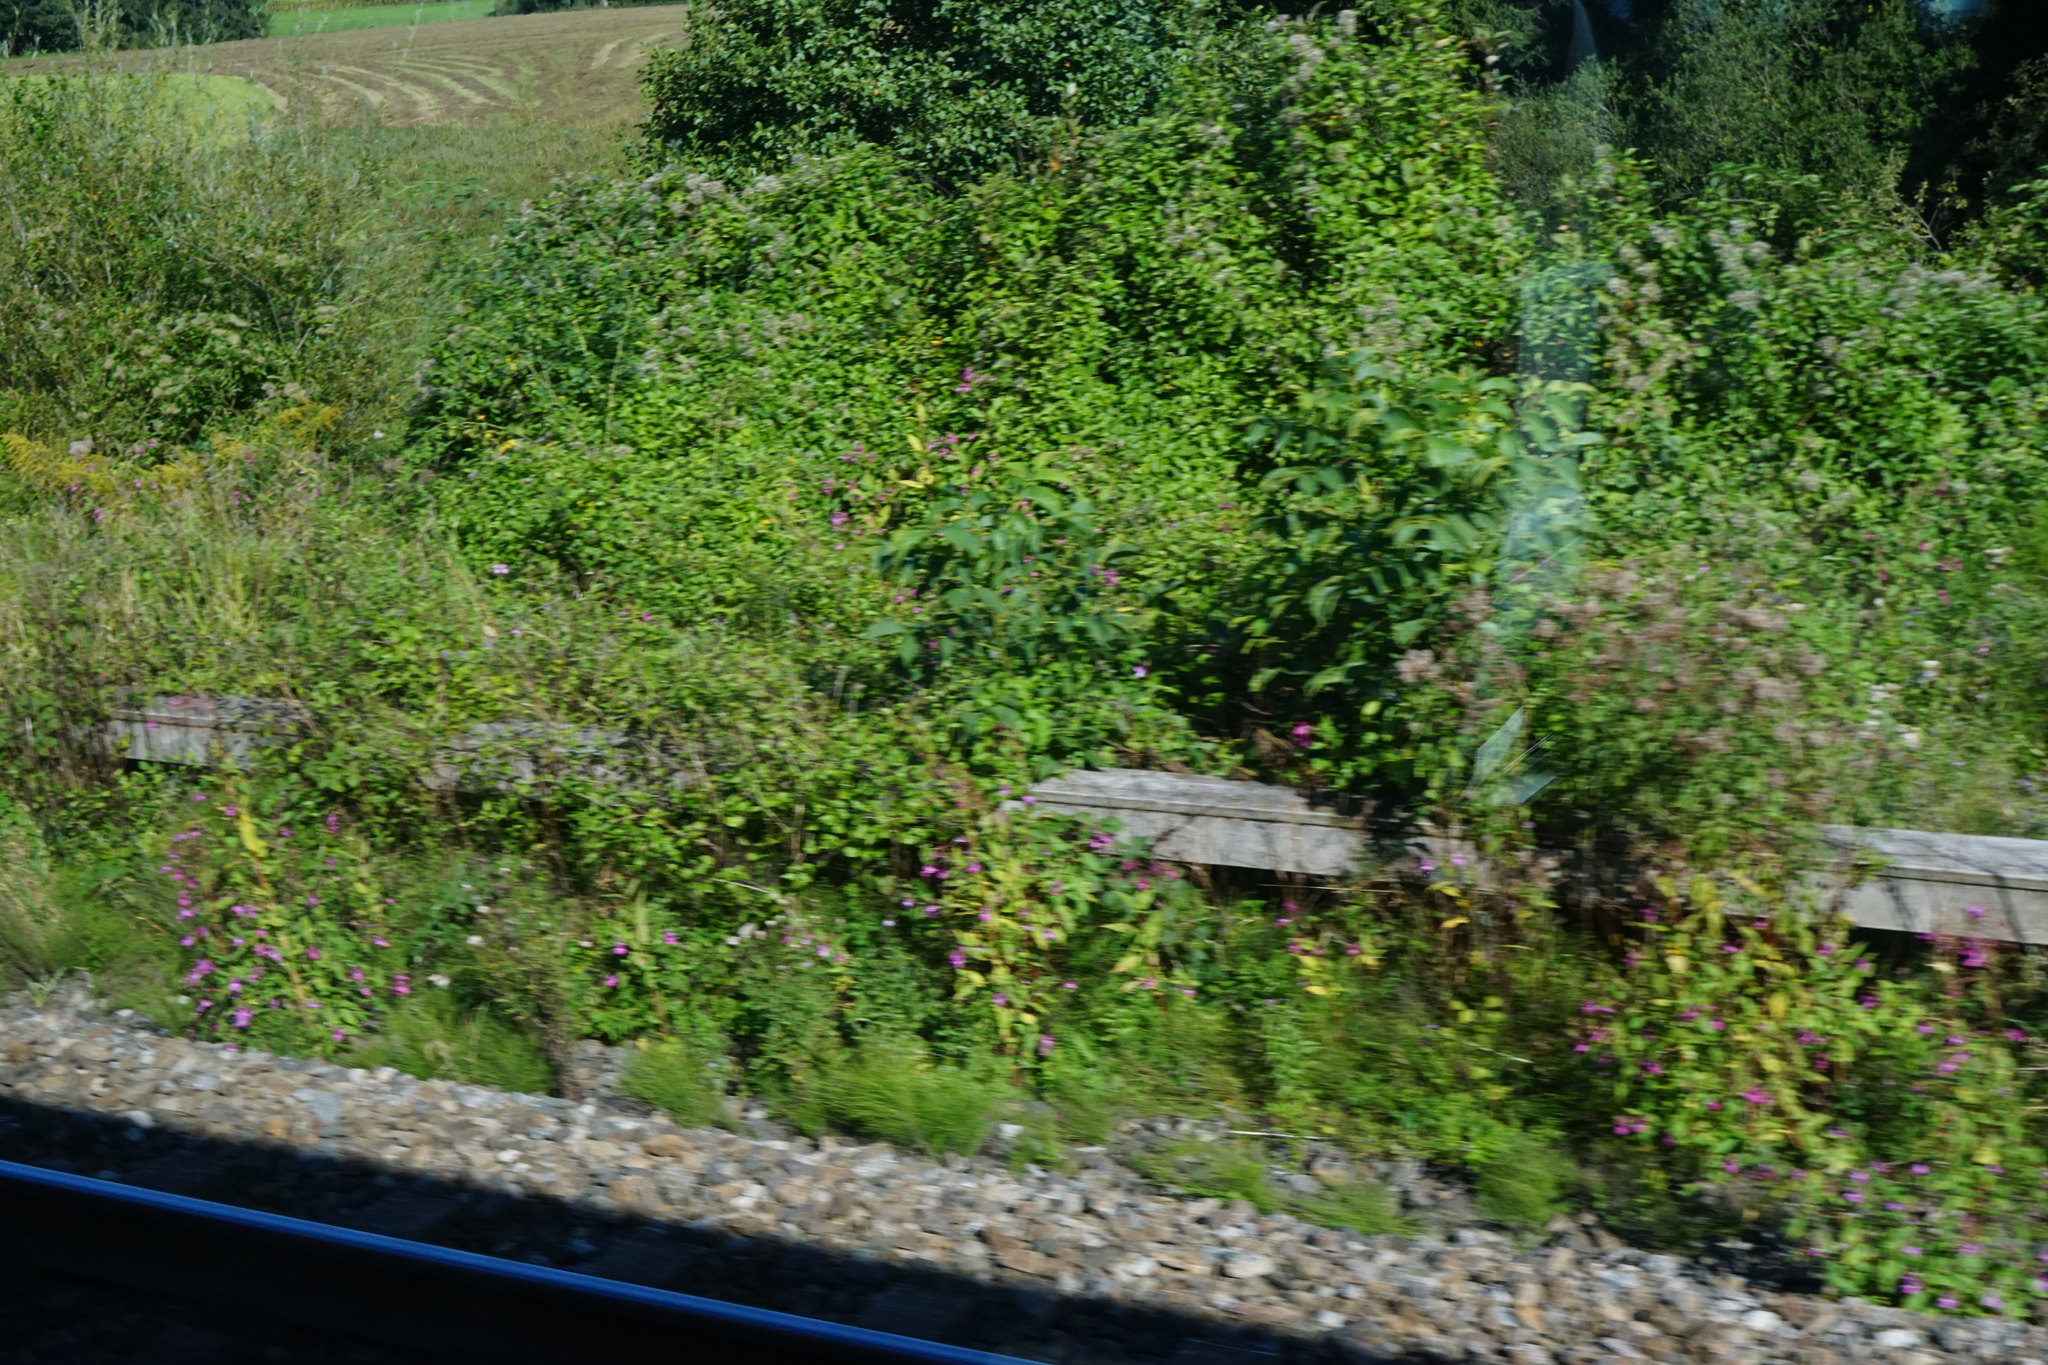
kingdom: Plantae
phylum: Tracheophyta
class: Magnoliopsida
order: Ericales
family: Balsaminaceae
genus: Impatiens
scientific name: Impatiens glandulifera
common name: Himalayan balsam
